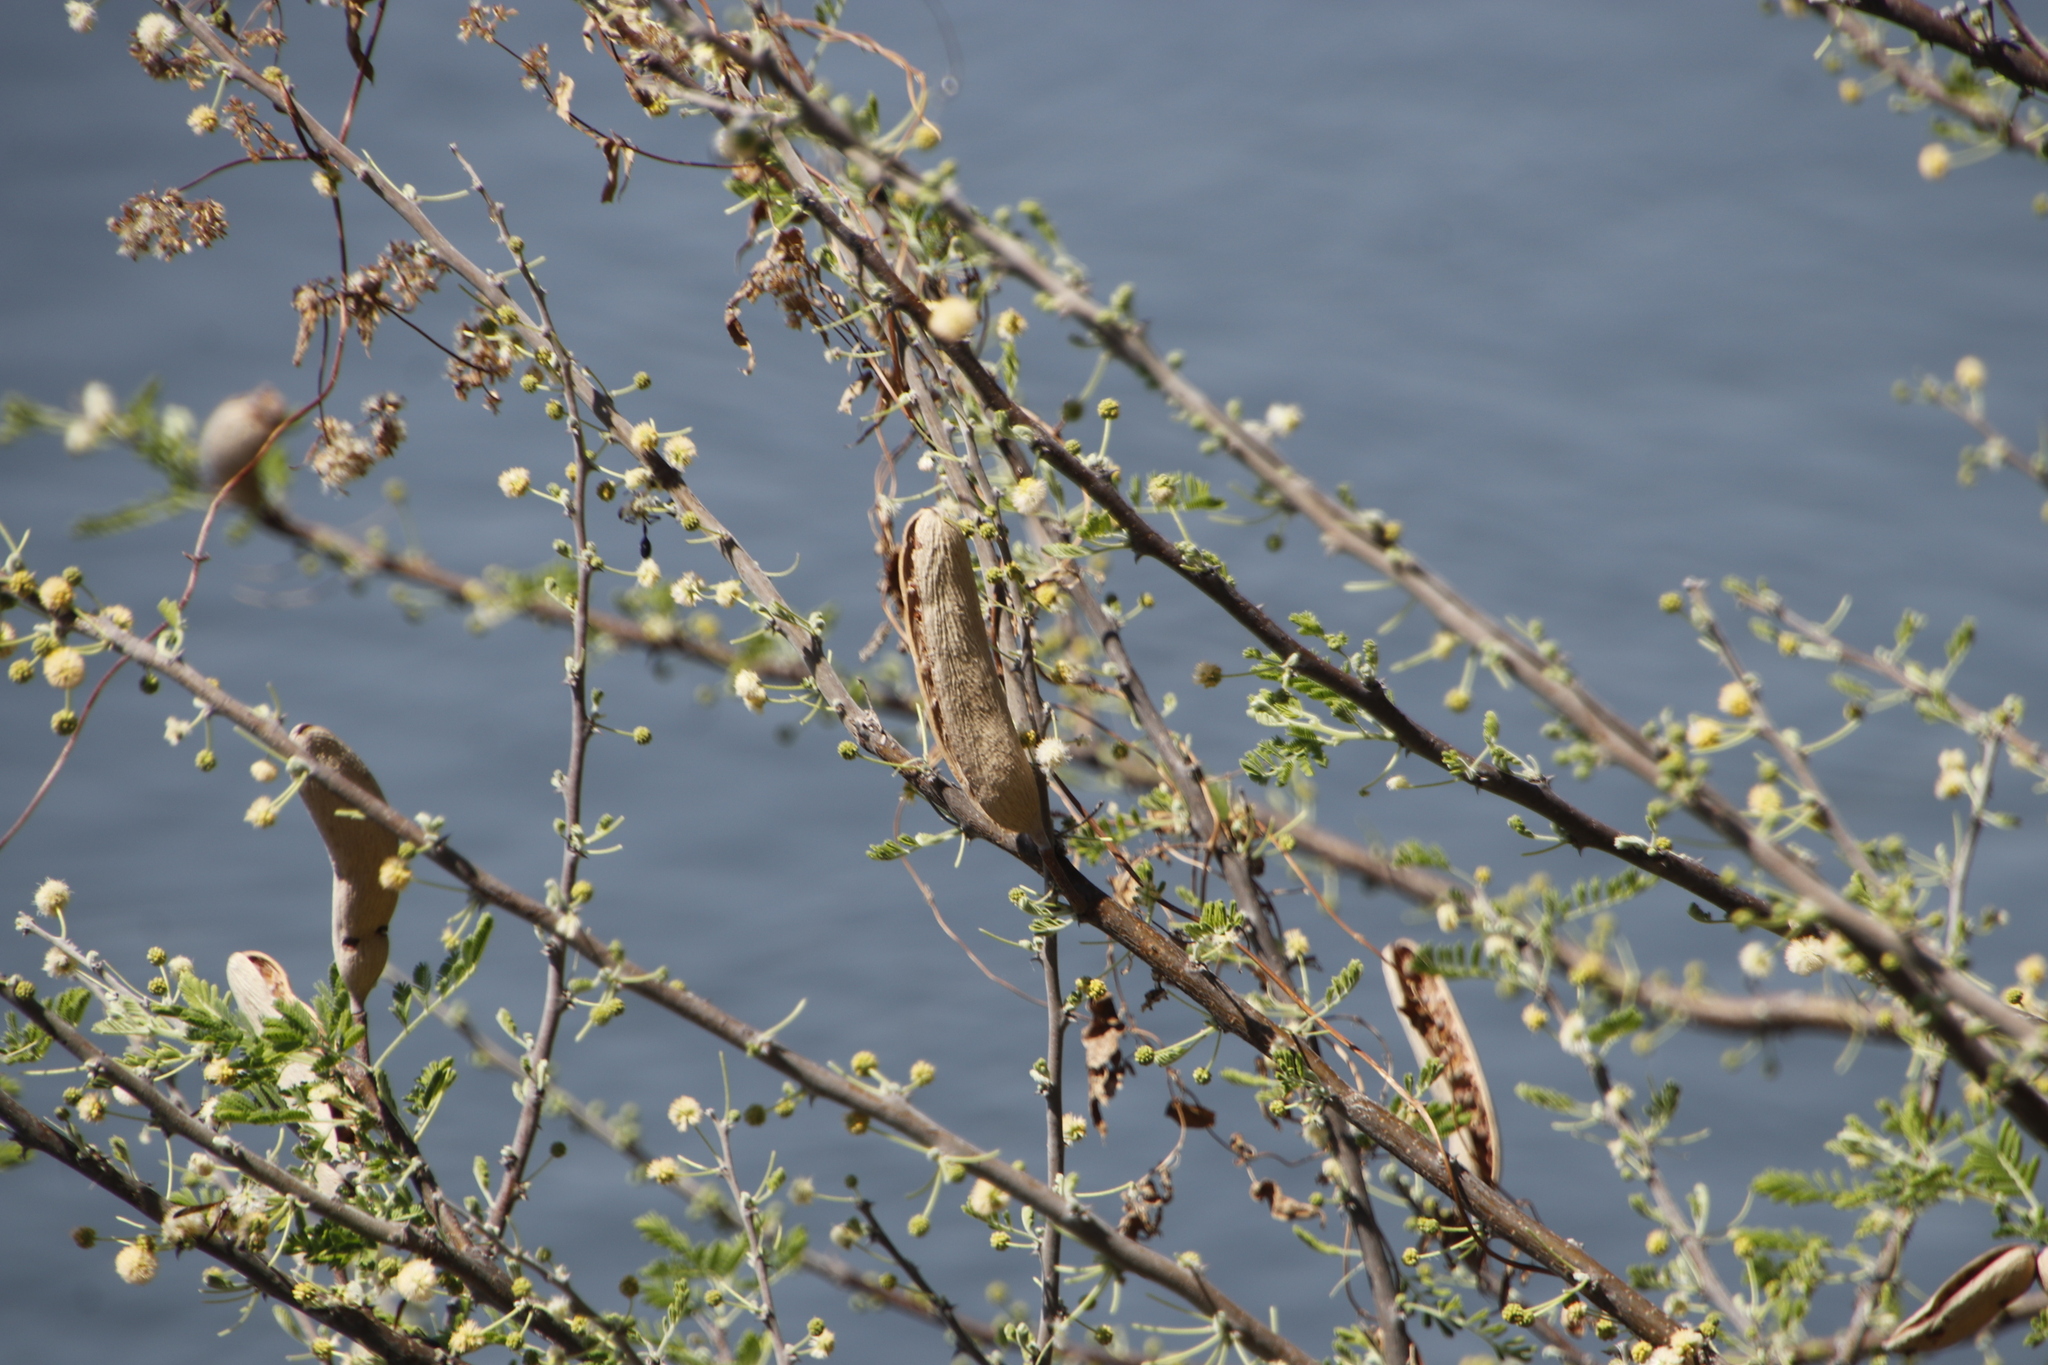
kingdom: Plantae
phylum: Tracheophyta
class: Magnoliopsida
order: Fabales
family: Fabaceae
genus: Vachellia
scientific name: Vachellia hebeclada
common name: Candle thorn
